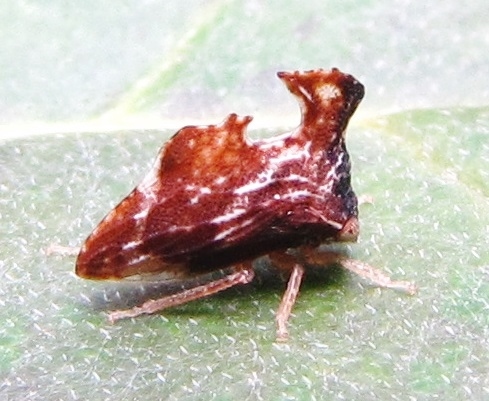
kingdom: Animalia
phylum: Arthropoda
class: Insecta
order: Hemiptera
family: Membracidae
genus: Entylia
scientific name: Entylia carinata
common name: Keeled treehopper
